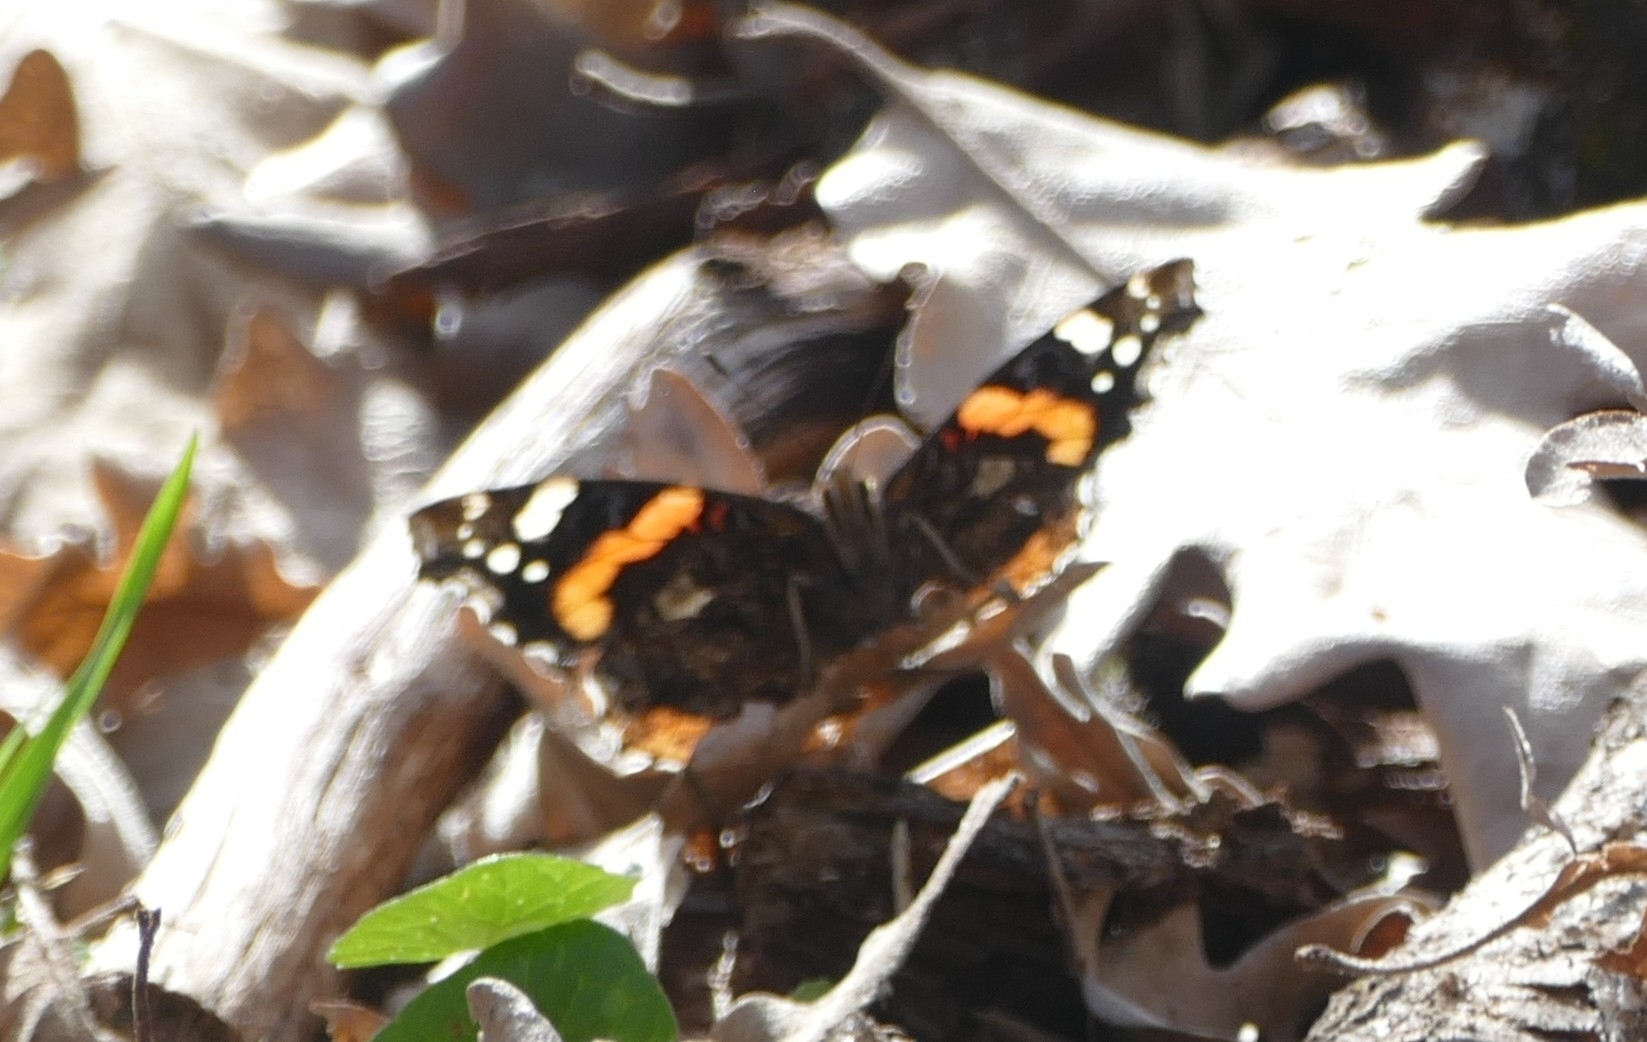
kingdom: Animalia
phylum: Arthropoda
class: Insecta
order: Lepidoptera
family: Nymphalidae
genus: Vanessa
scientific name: Vanessa atalanta
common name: Red admiral
